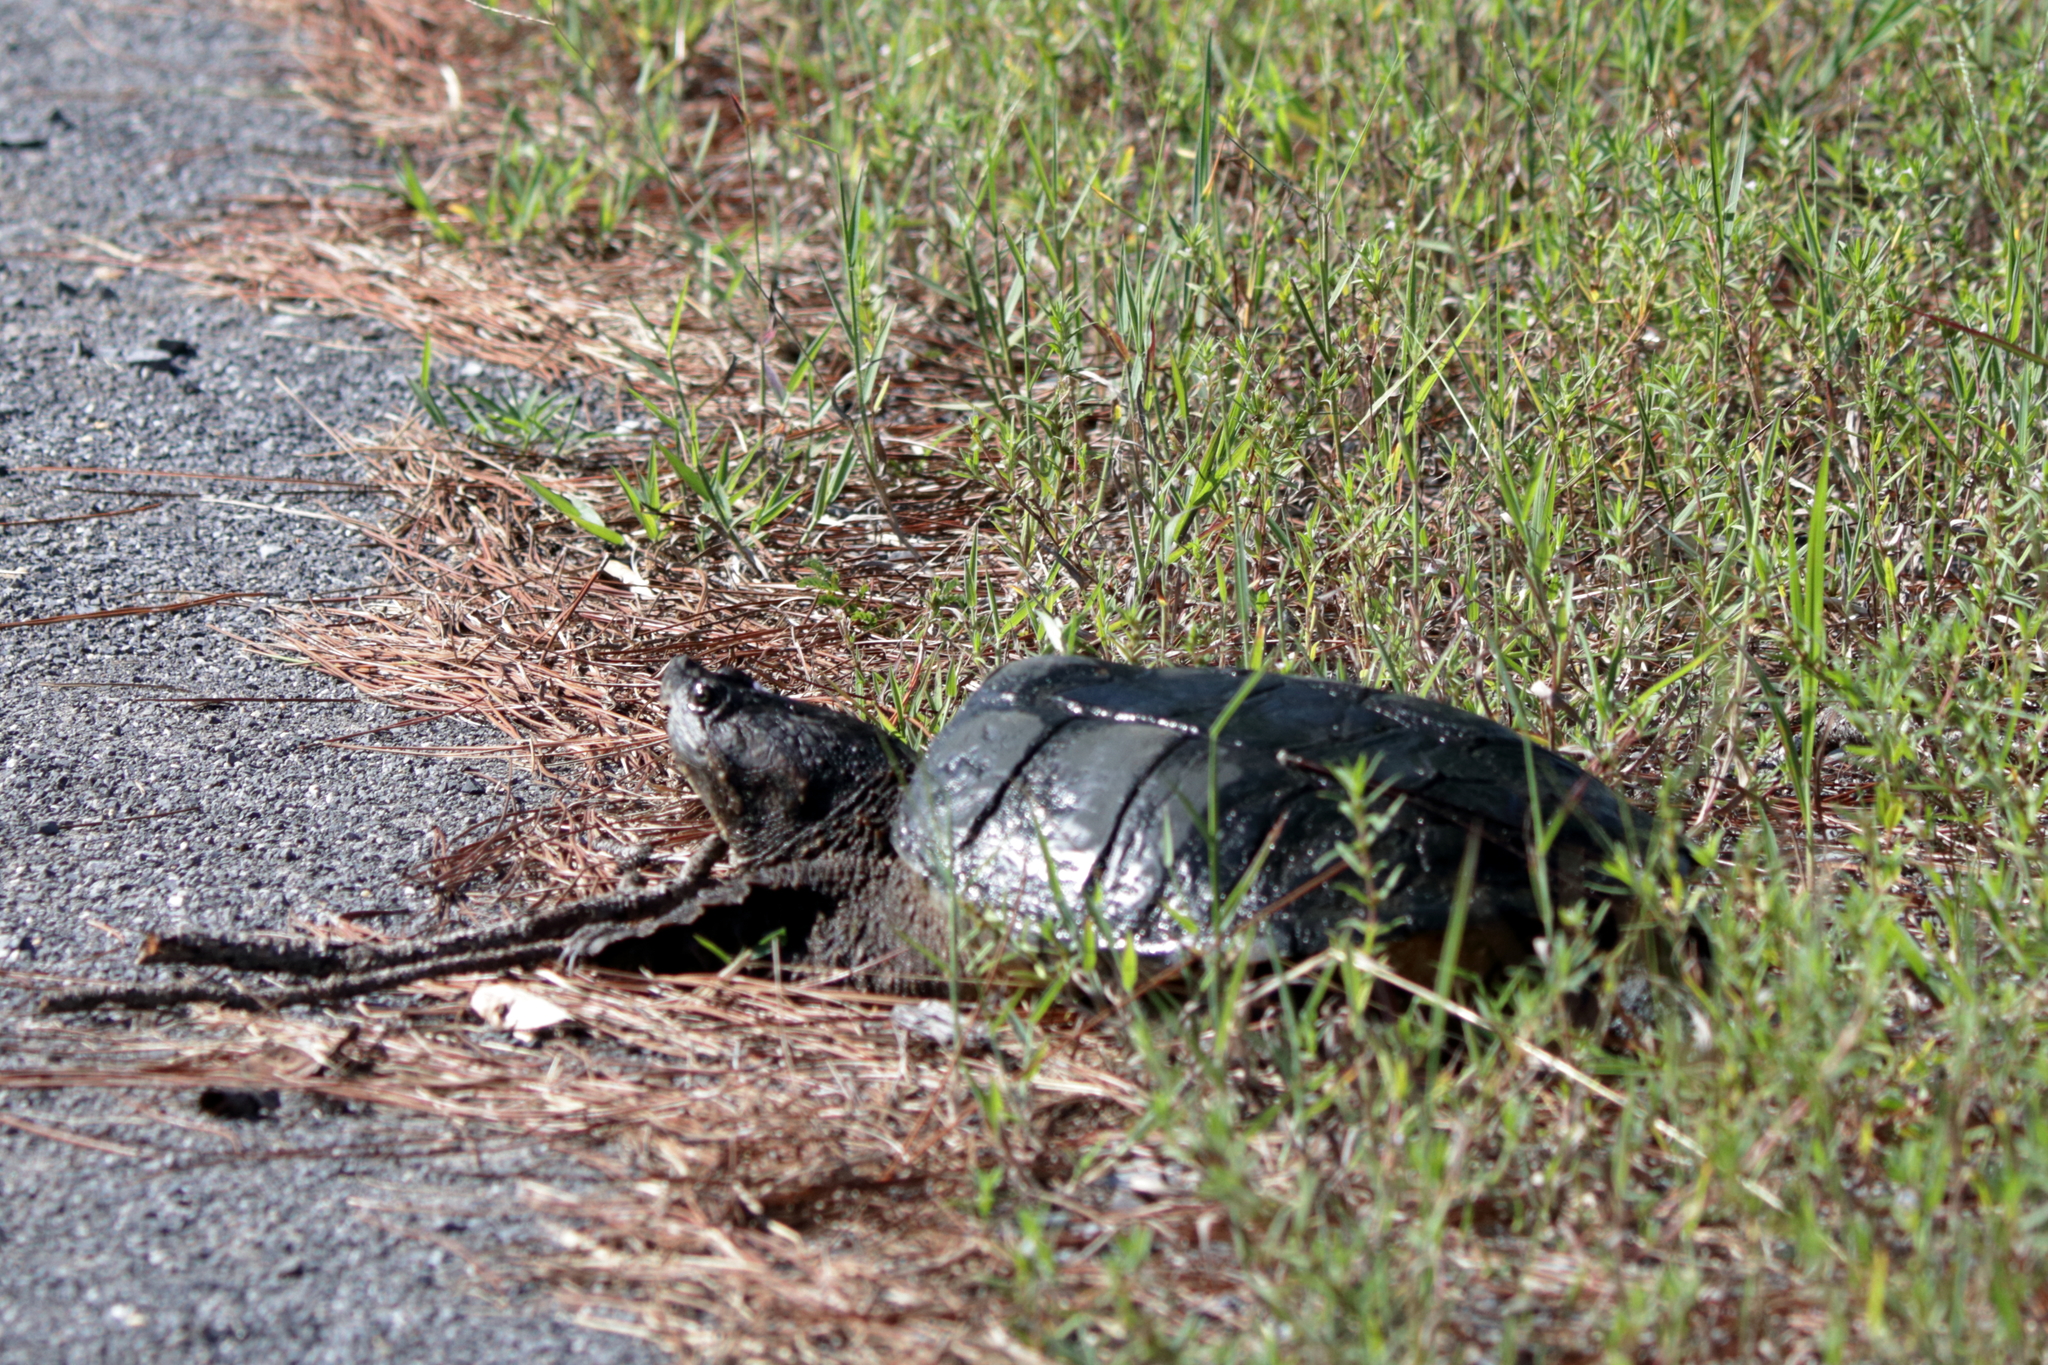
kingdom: Animalia
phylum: Chordata
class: Testudines
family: Chelydridae
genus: Chelydra
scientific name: Chelydra serpentina
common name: Common snapping turtle
